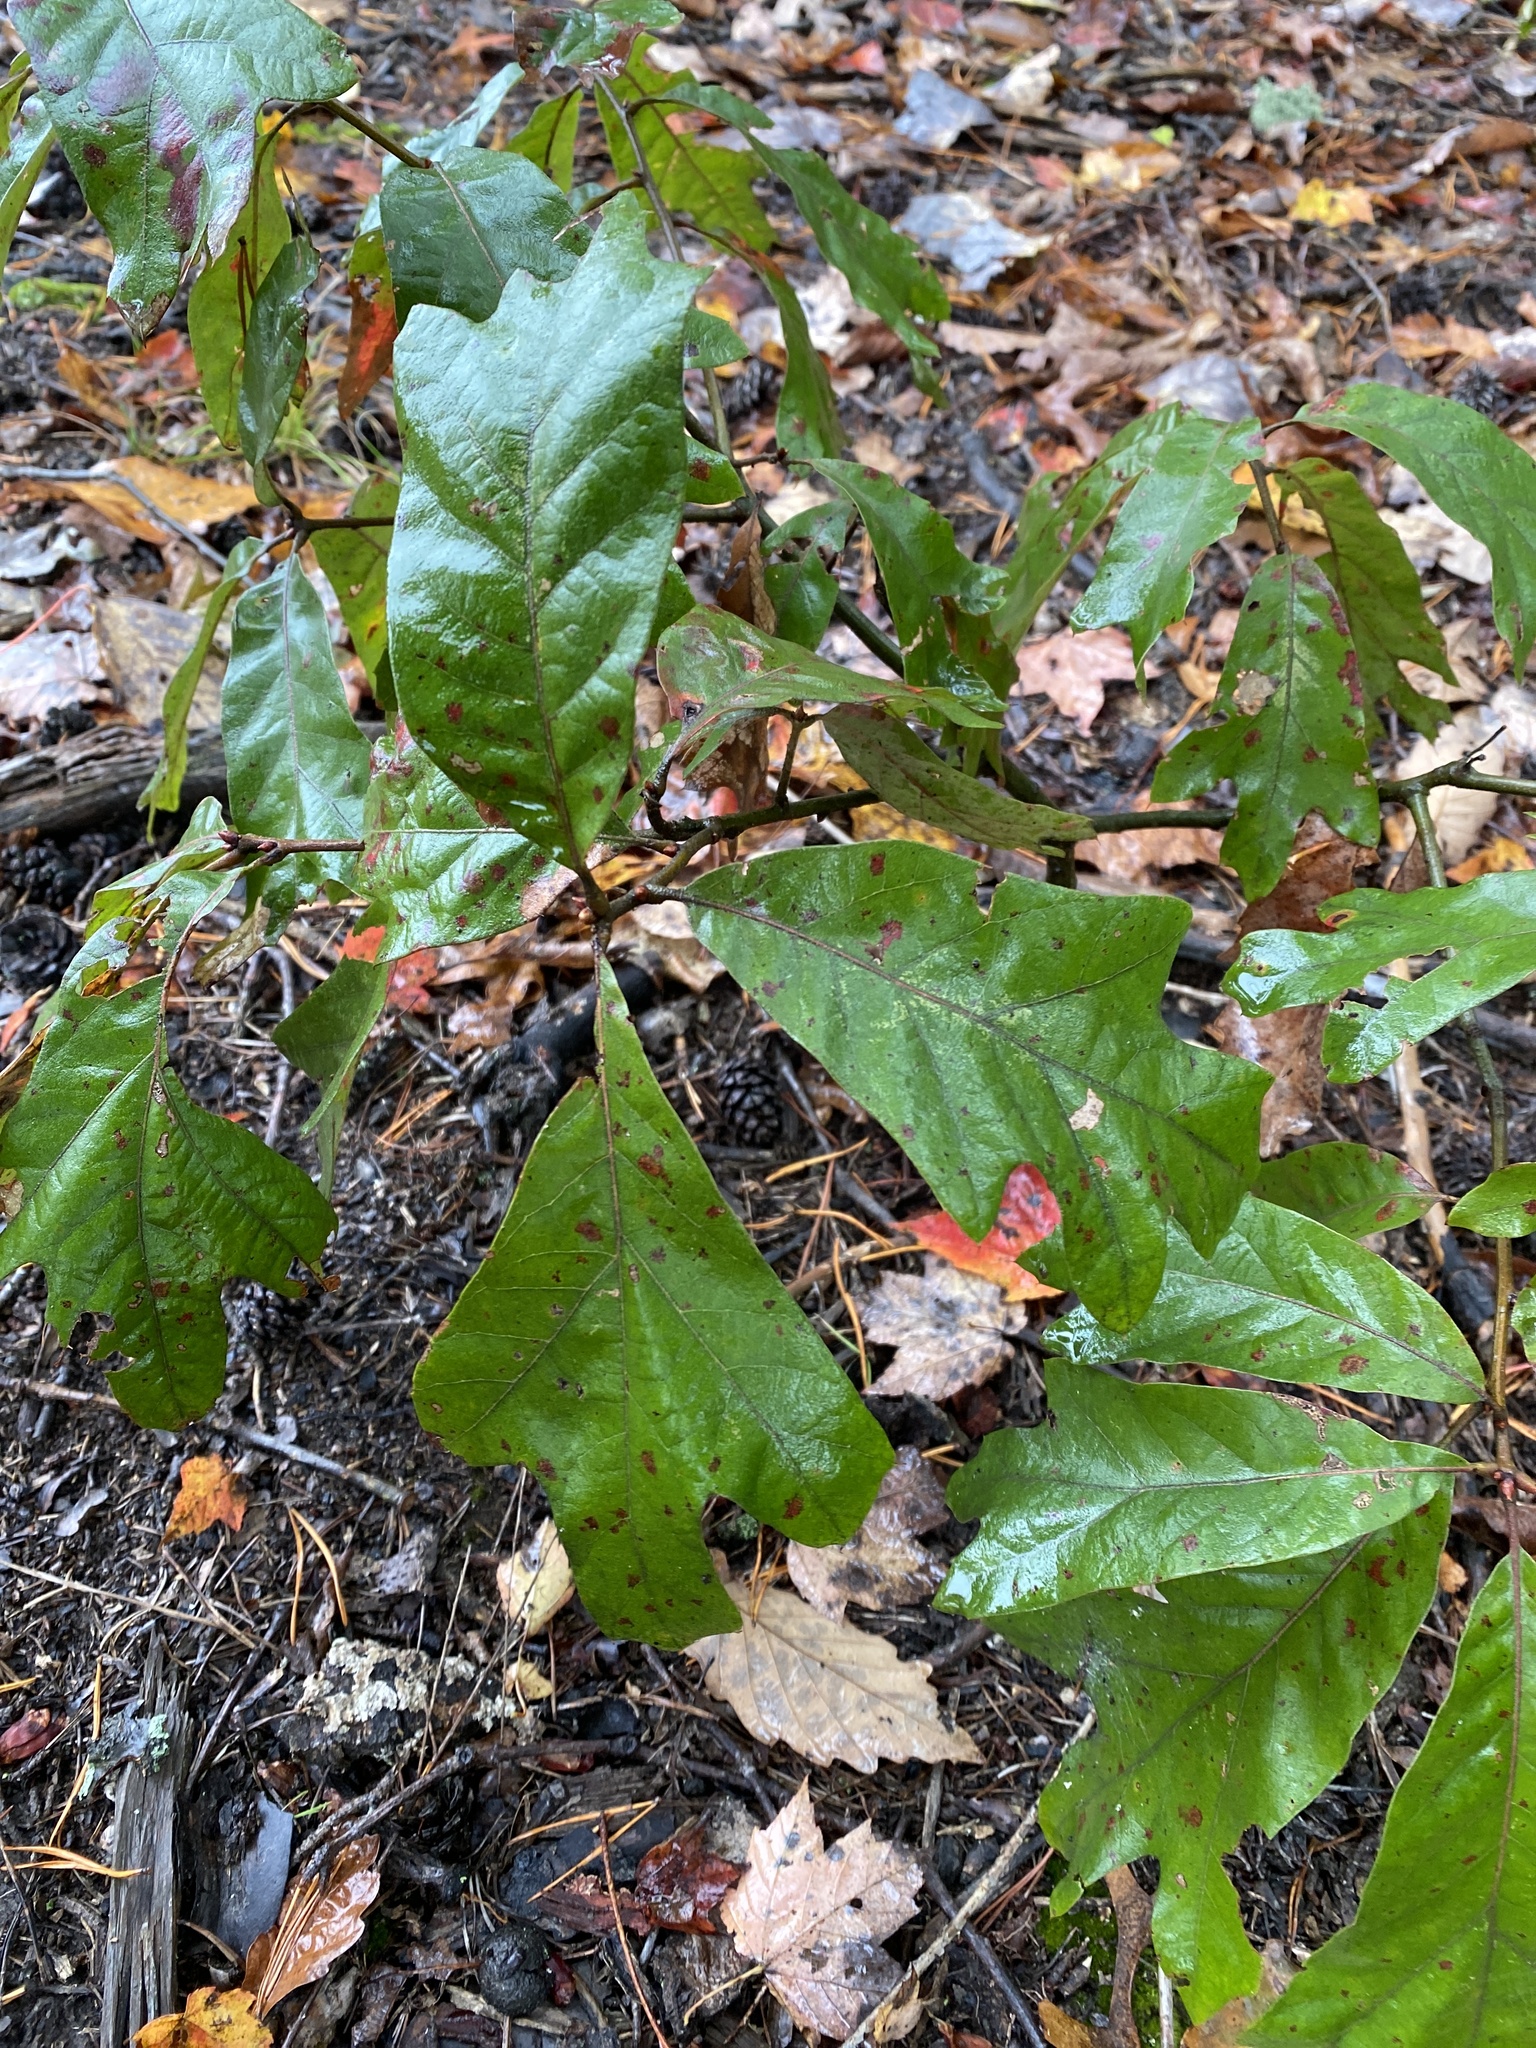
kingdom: Plantae
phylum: Tracheophyta
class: Magnoliopsida
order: Fagales
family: Fagaceae
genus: Quercus
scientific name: Quercus falcata
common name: Southern red oak
